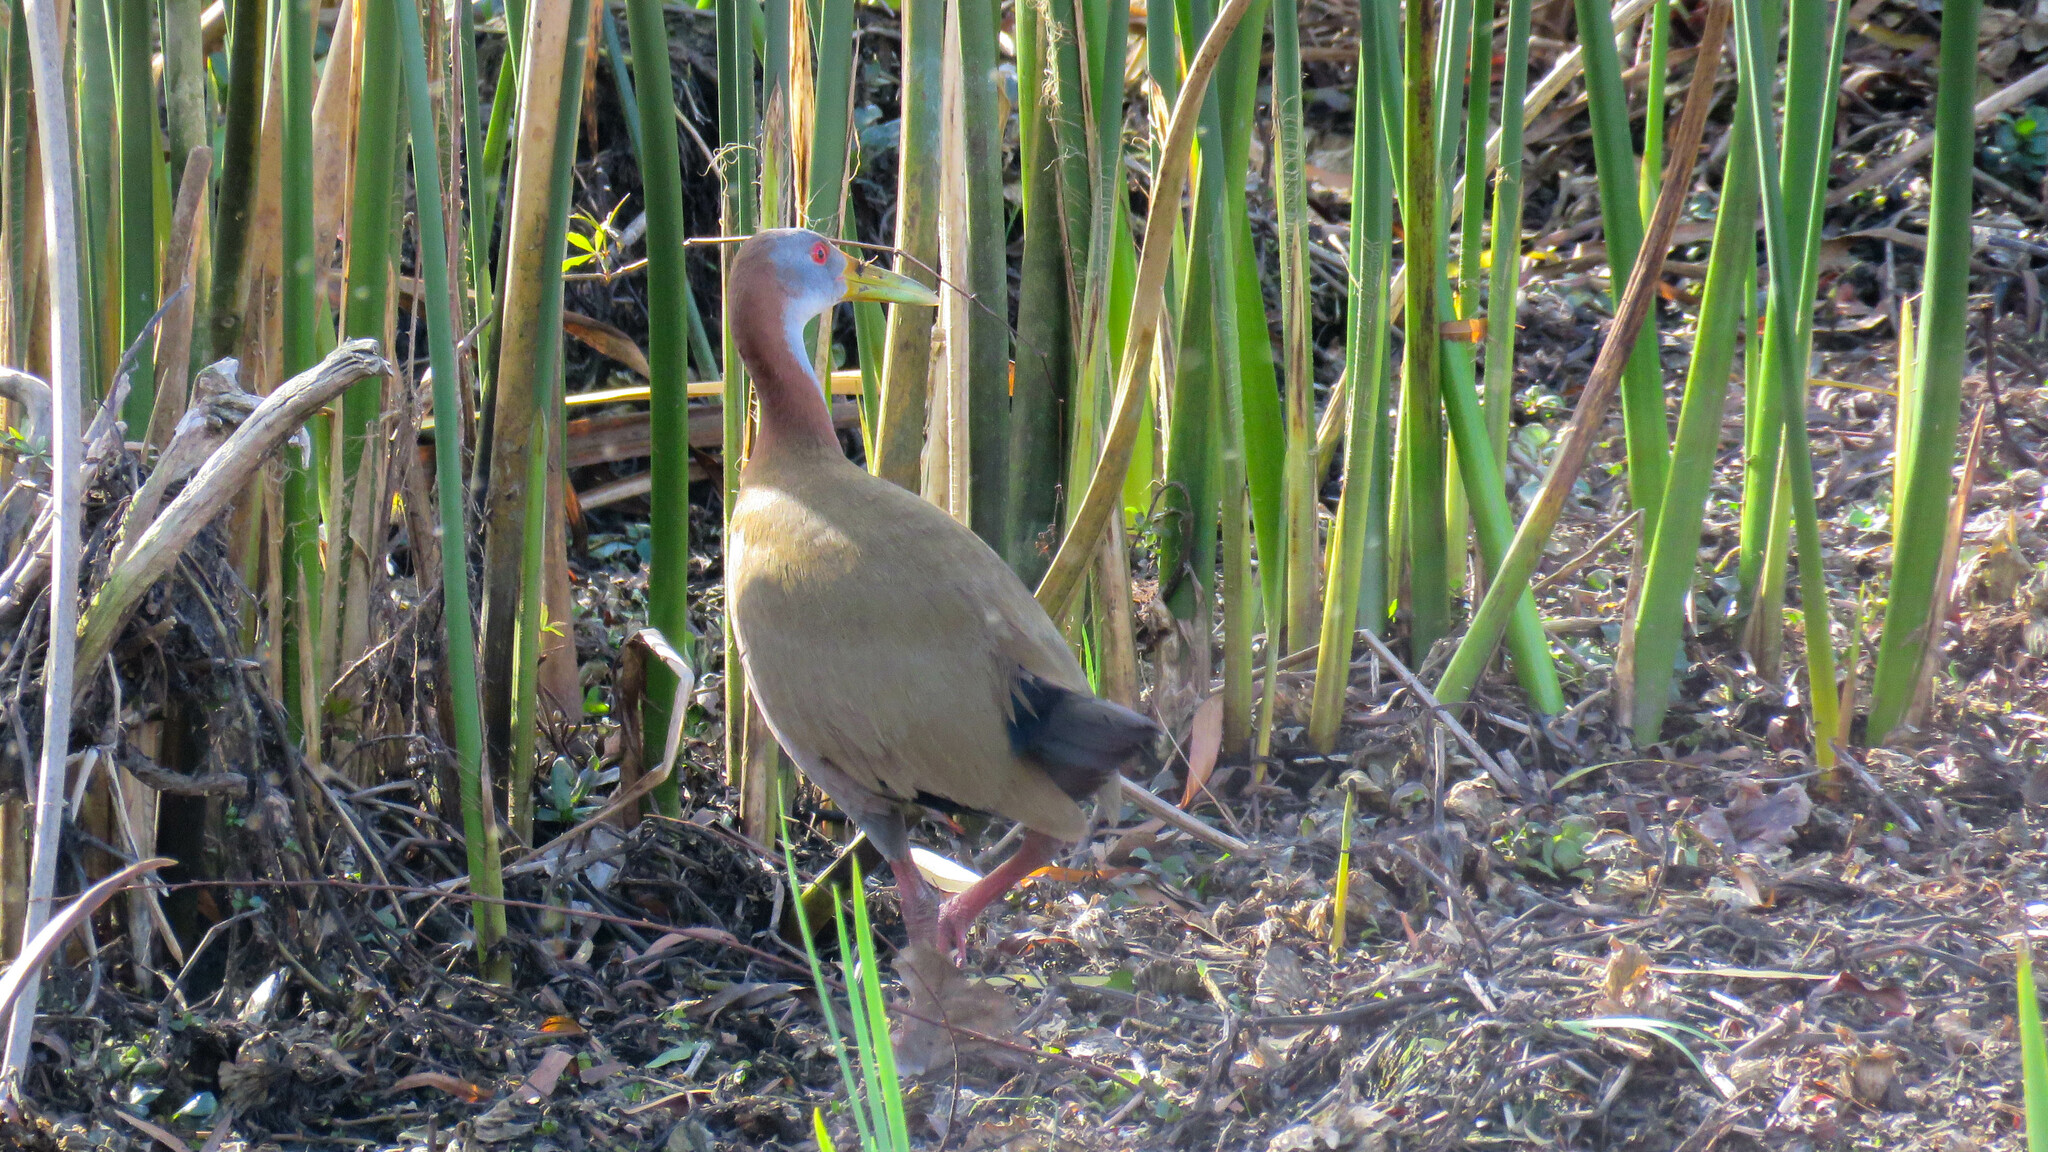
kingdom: Animalia
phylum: Chordata
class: Aves
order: Gruiformes
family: Rallidae
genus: Aramides
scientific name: Aramides ypecaha
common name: Giant wood rail
